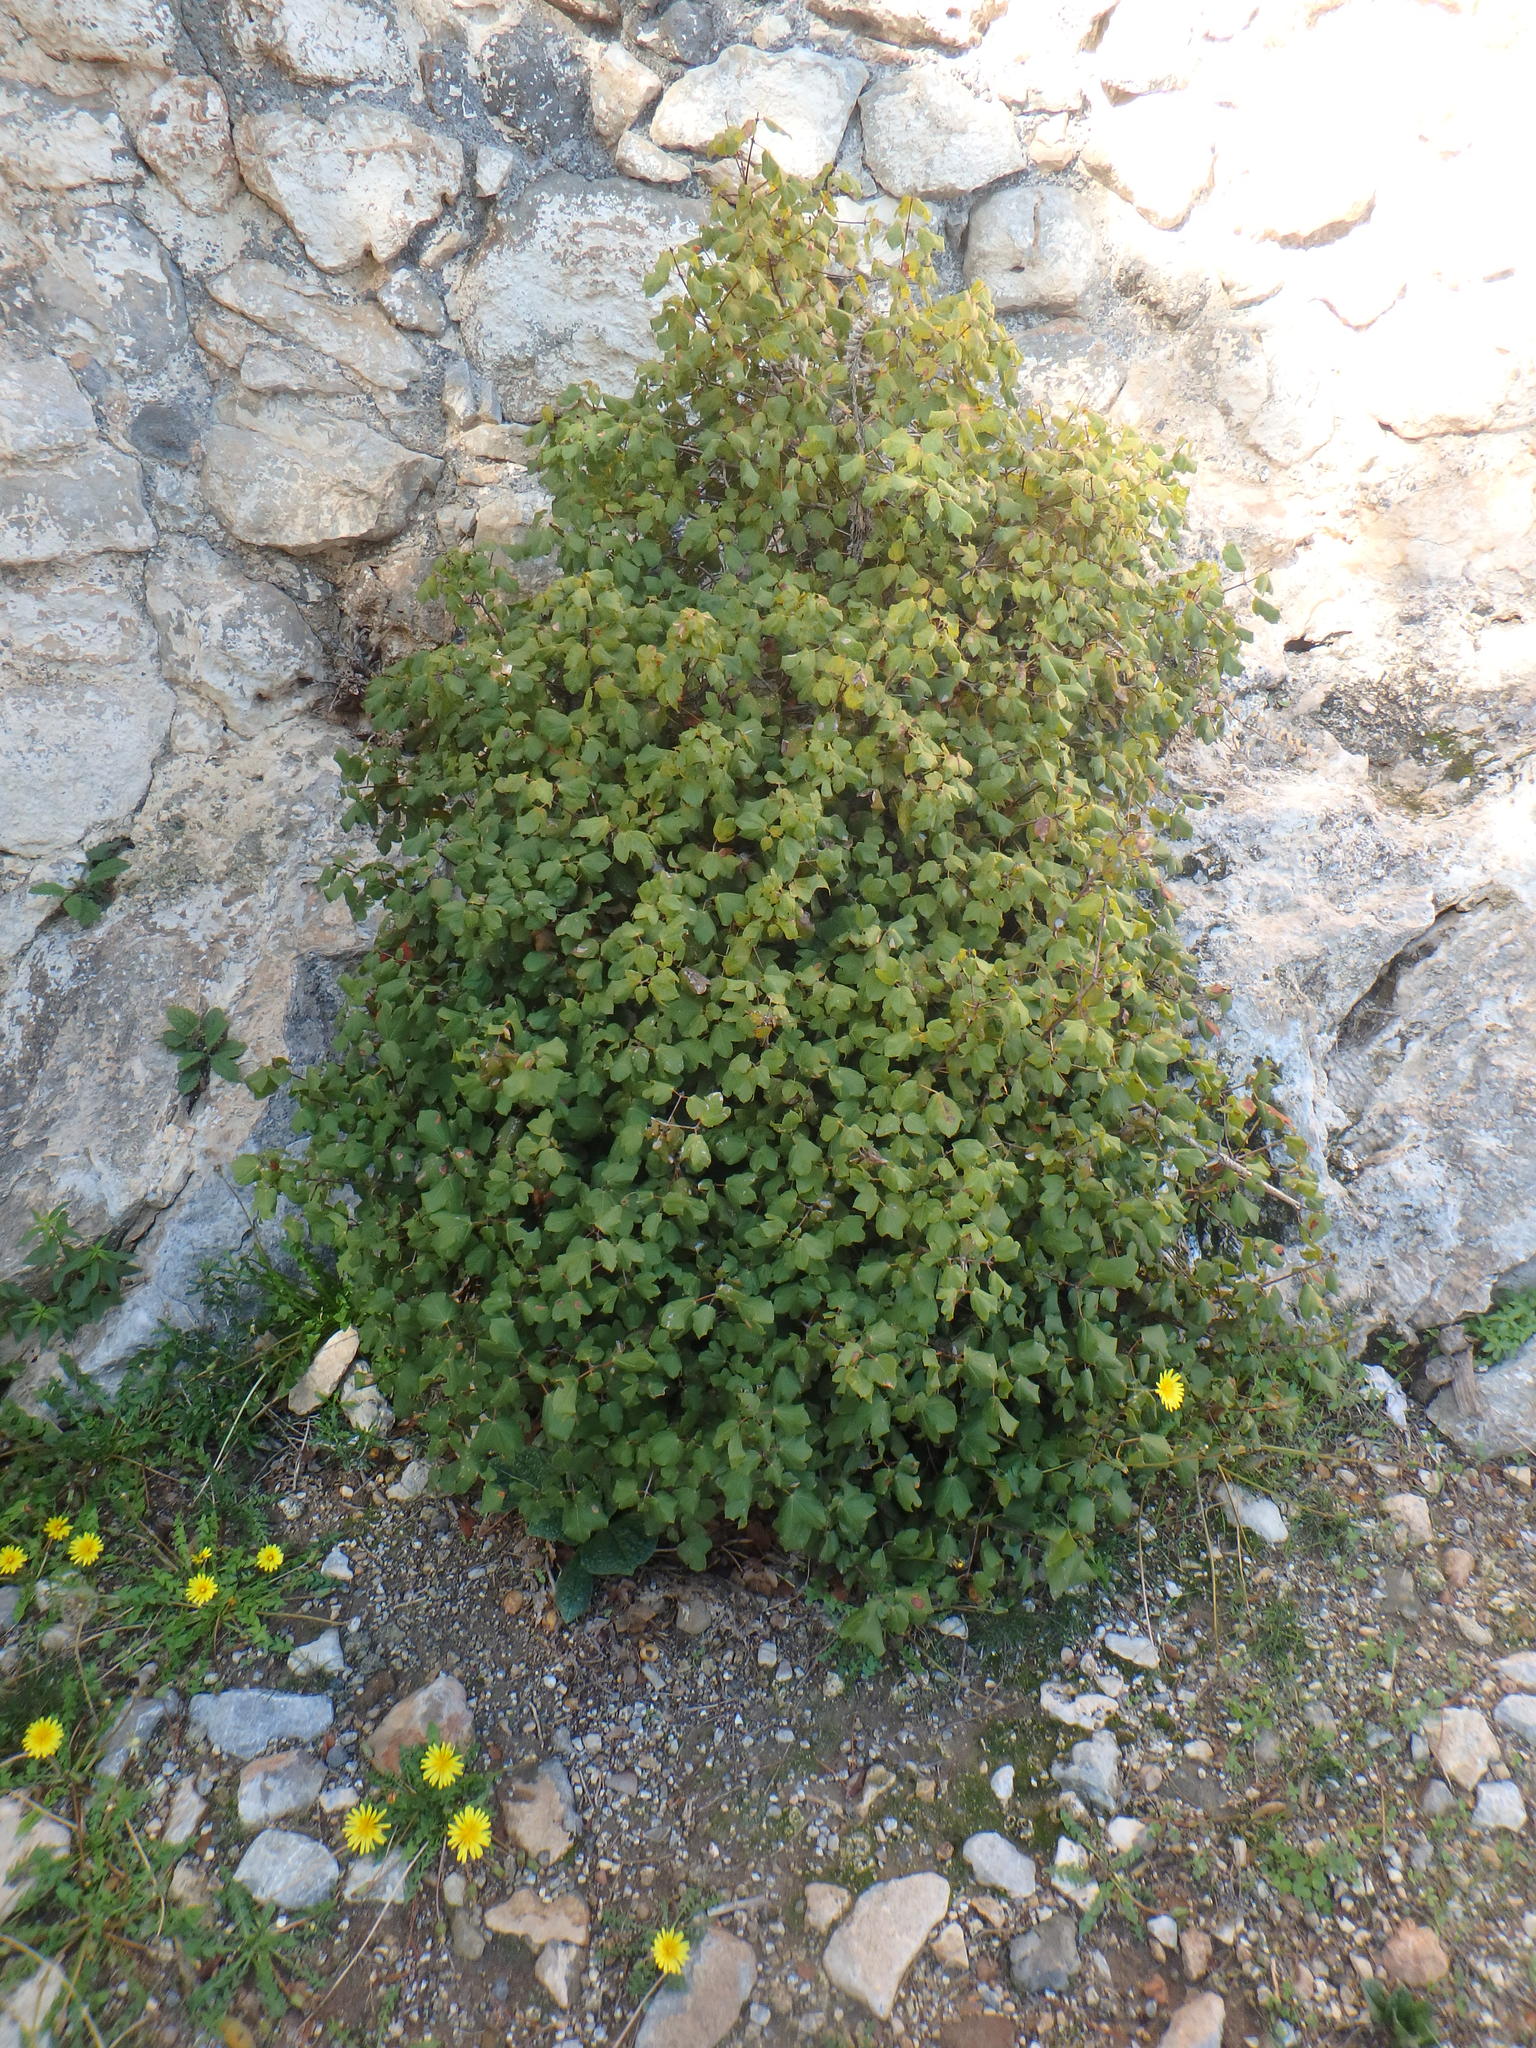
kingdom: Plantae
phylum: Tracheophyta
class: Magnoliopsida
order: Sapindales
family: Sapindaceae
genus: Acer
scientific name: Acer obtusifolium
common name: Cyprus maple
